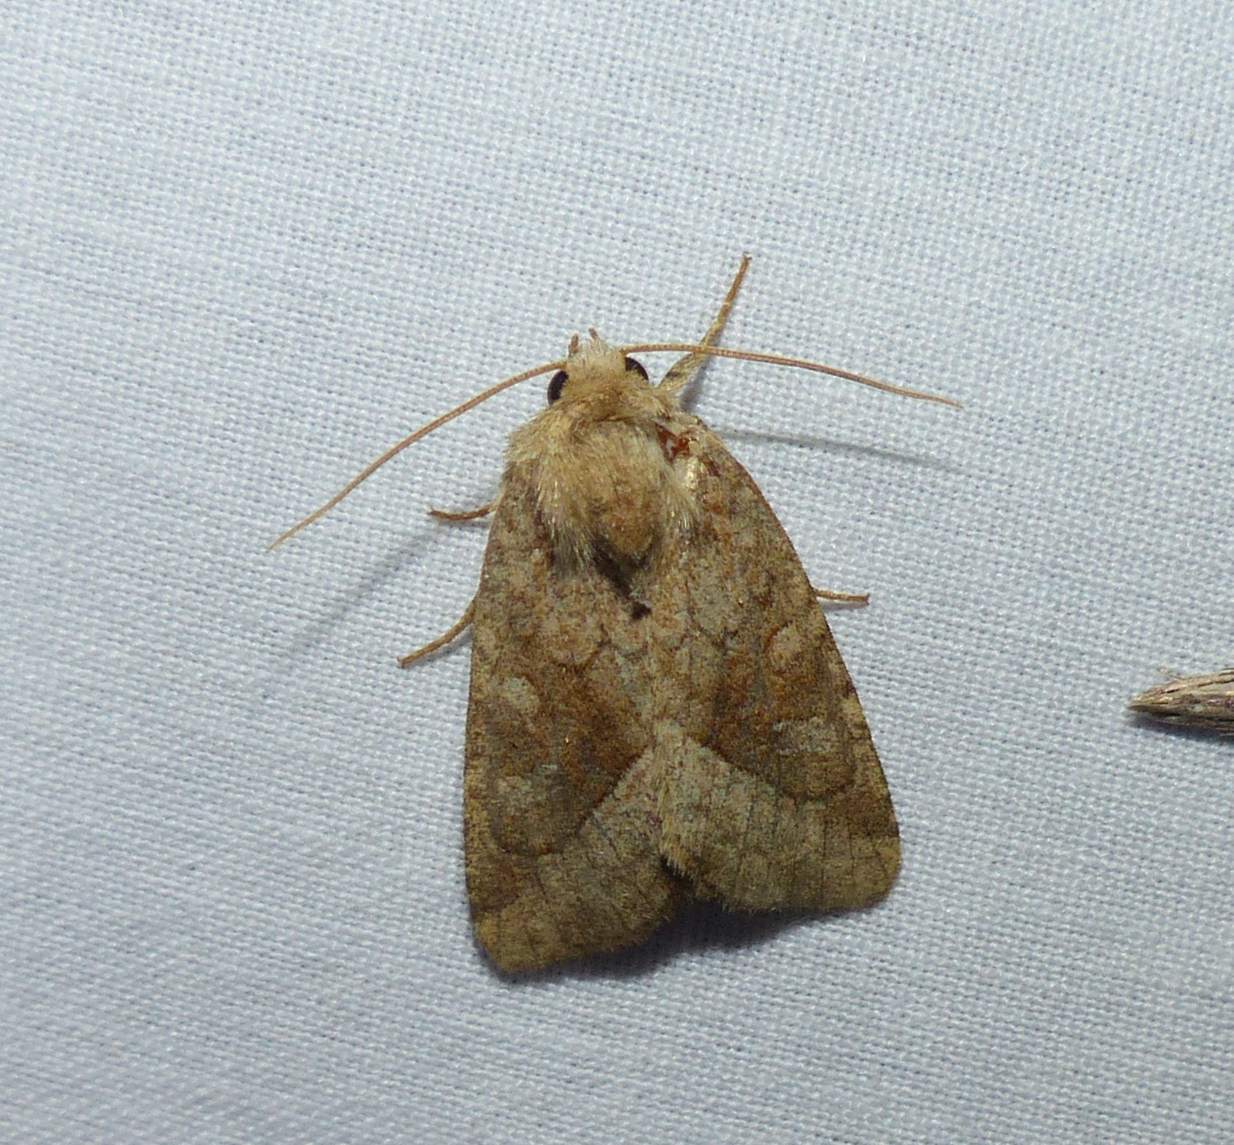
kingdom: Animalia
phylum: Arthropoda
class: Insecta
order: Lepidoptera
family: Noctuidae
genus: Lacinipolia
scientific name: Lacinipolia lorea
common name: Bridled arches moth
